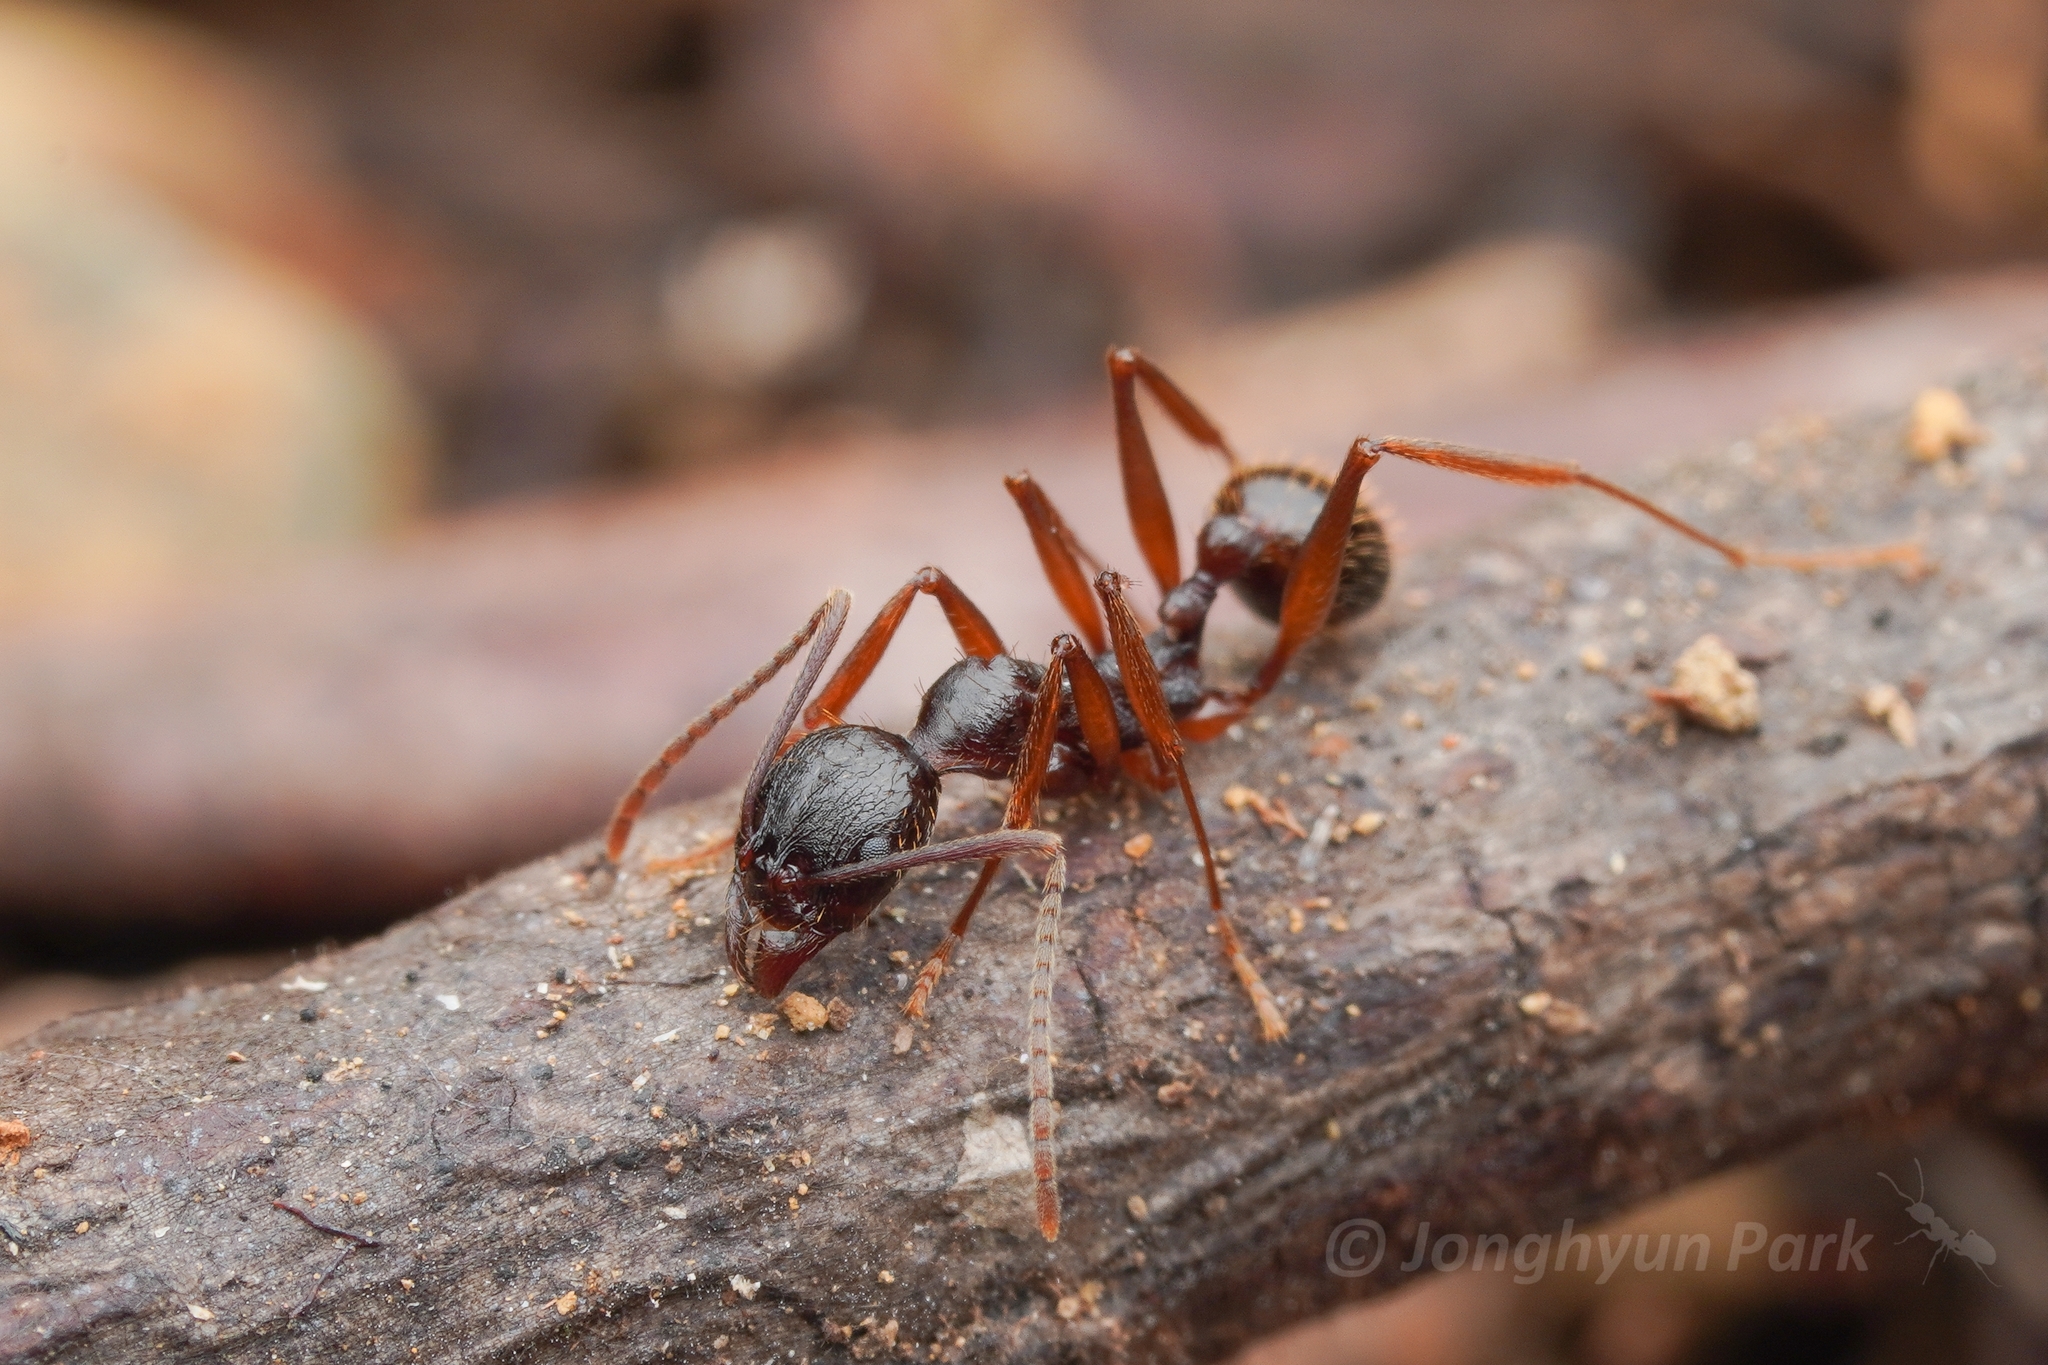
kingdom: Animalia
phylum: Arthropoda
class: Insecta
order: Hymenoptera
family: Formicidae
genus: Aphaenogaster
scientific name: Aphaenogaster japonica
